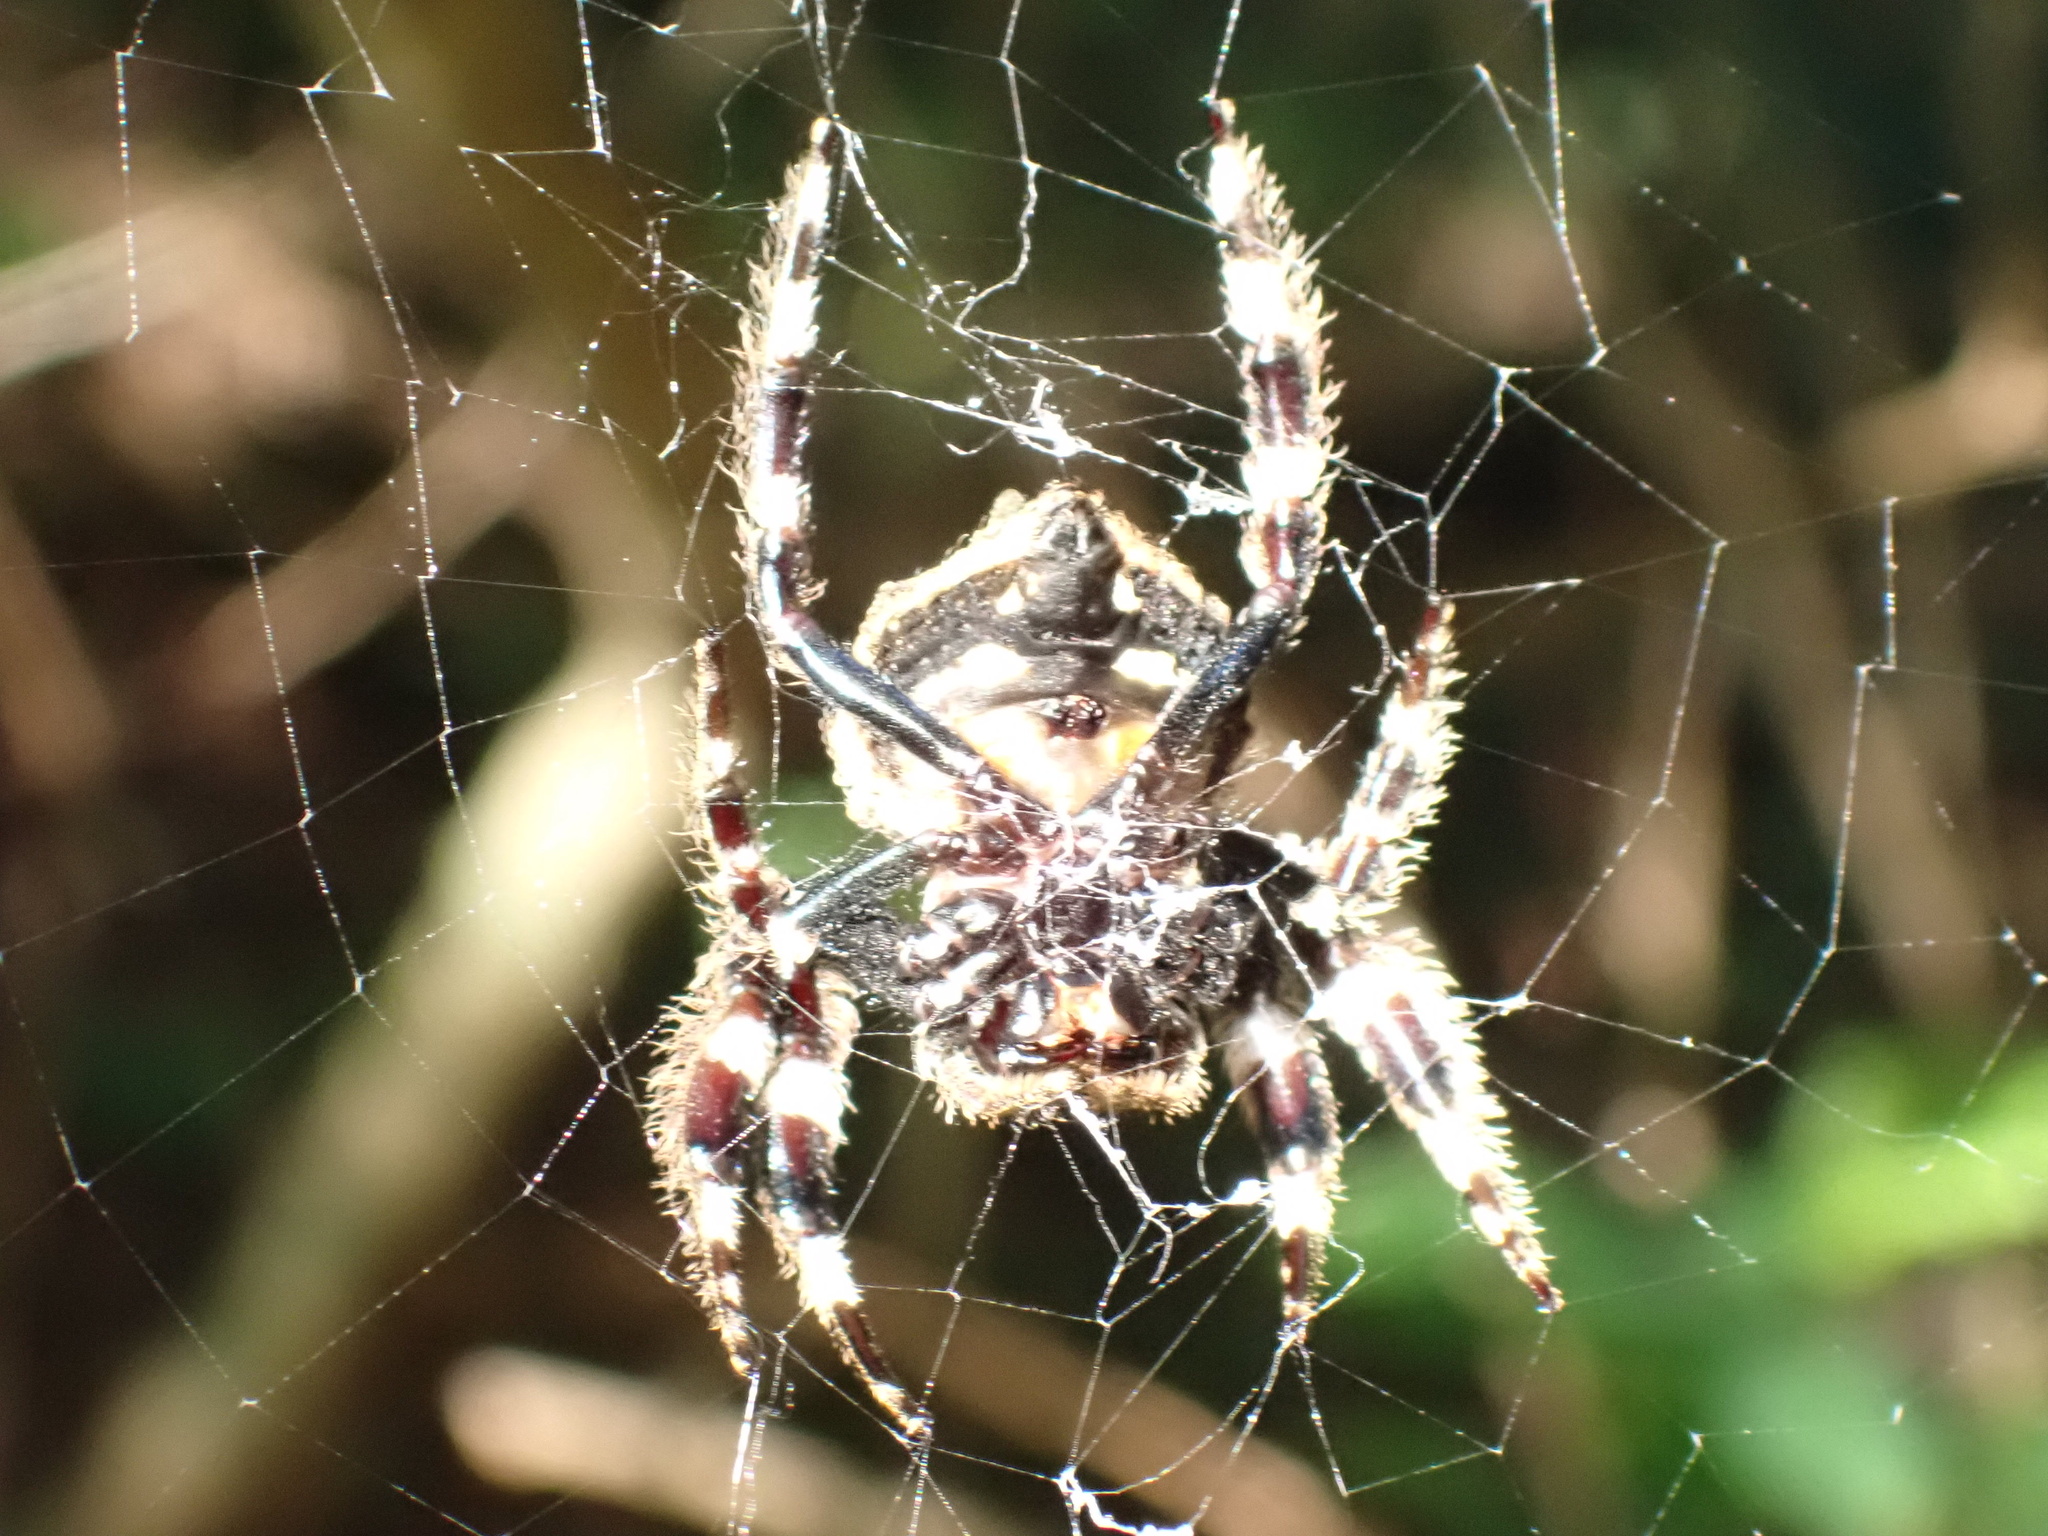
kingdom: Animalia
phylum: Arthropoda
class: Arachnida
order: Araneae
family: Araneidae
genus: Caerostris
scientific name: Caerostris sexcuspidata
